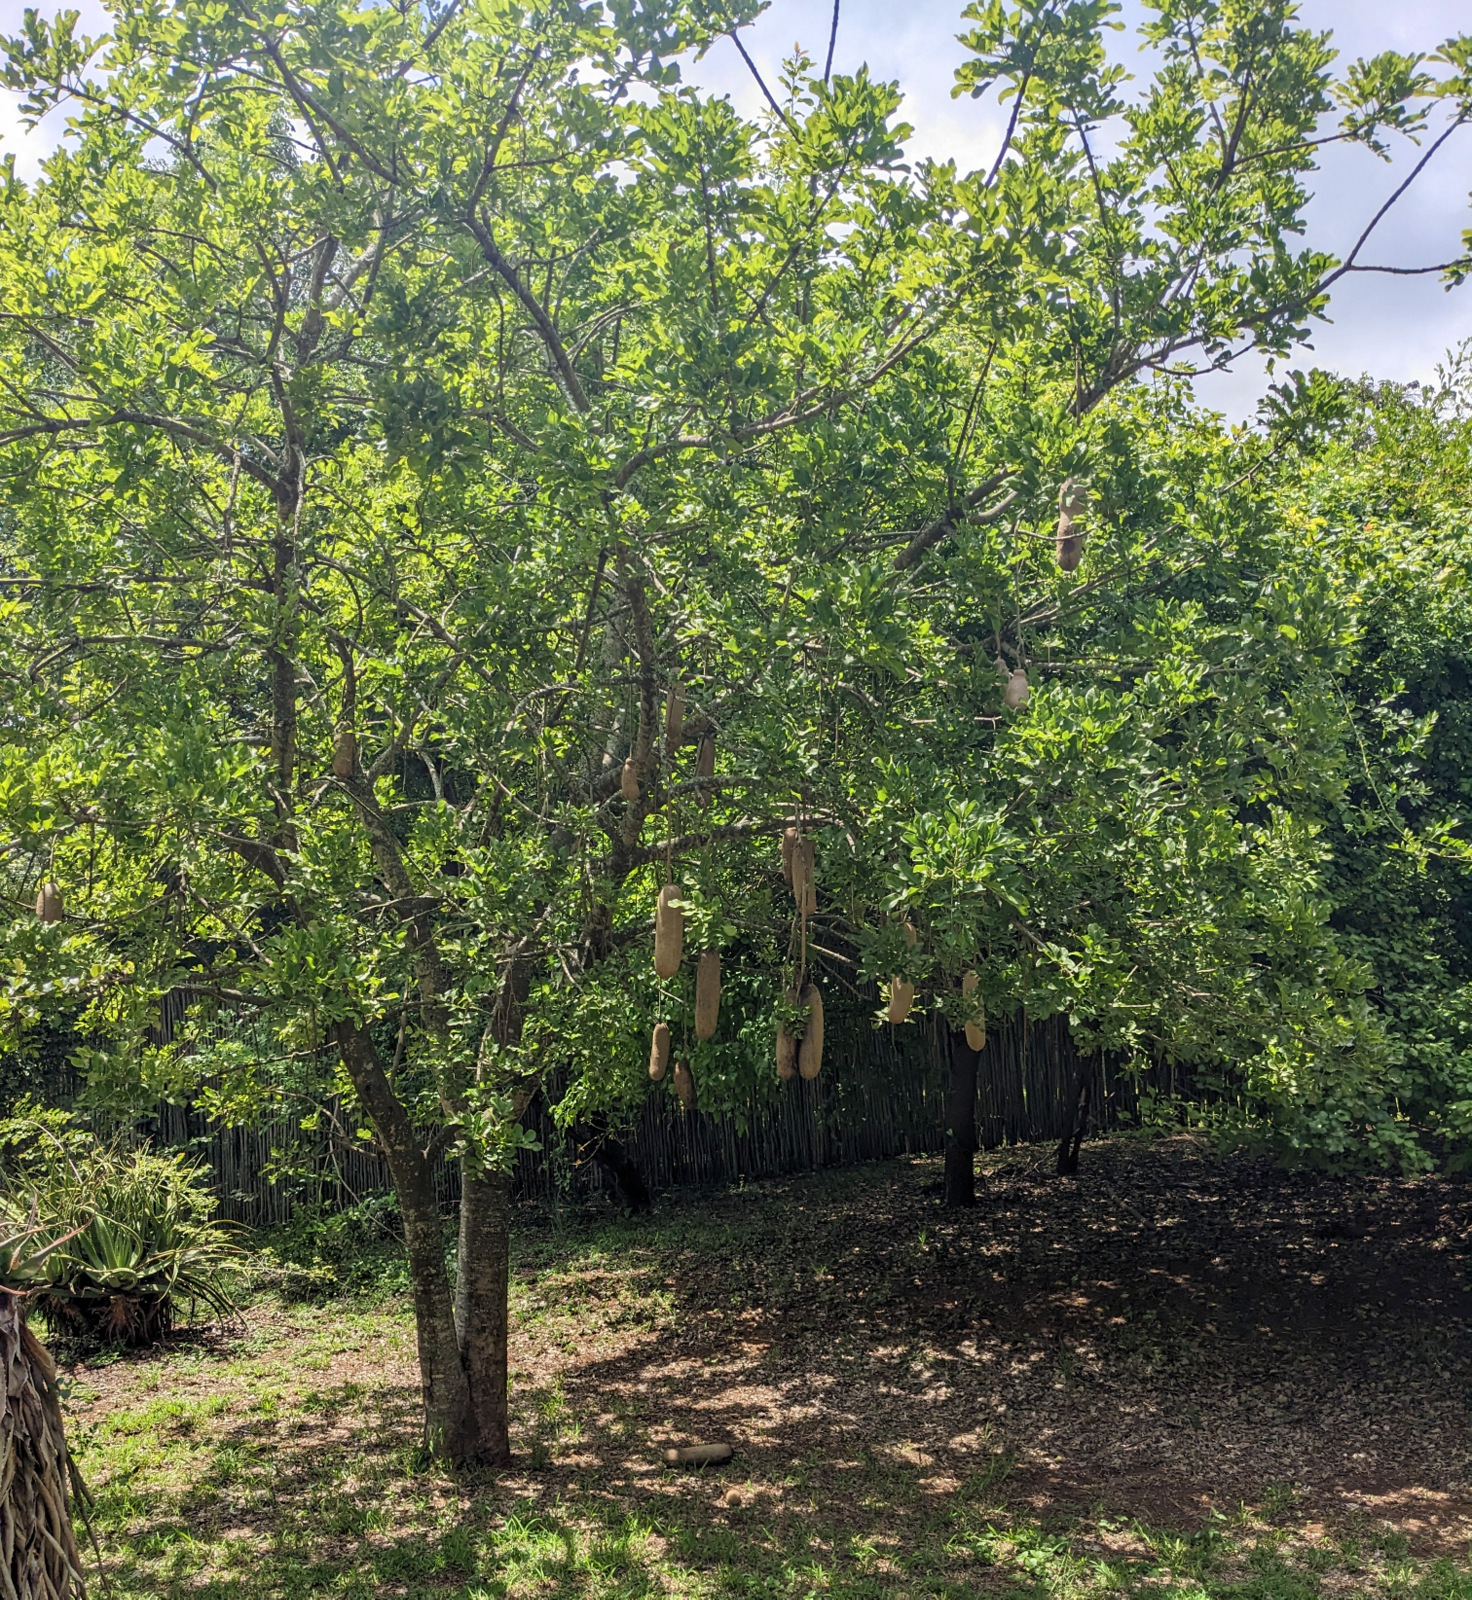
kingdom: Plantae
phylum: Tracheophyta
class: Magnoliopsida
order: Lamiales
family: Bignoniaceae
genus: Kigelia
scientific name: Kigelia africana
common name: Sausage tree
